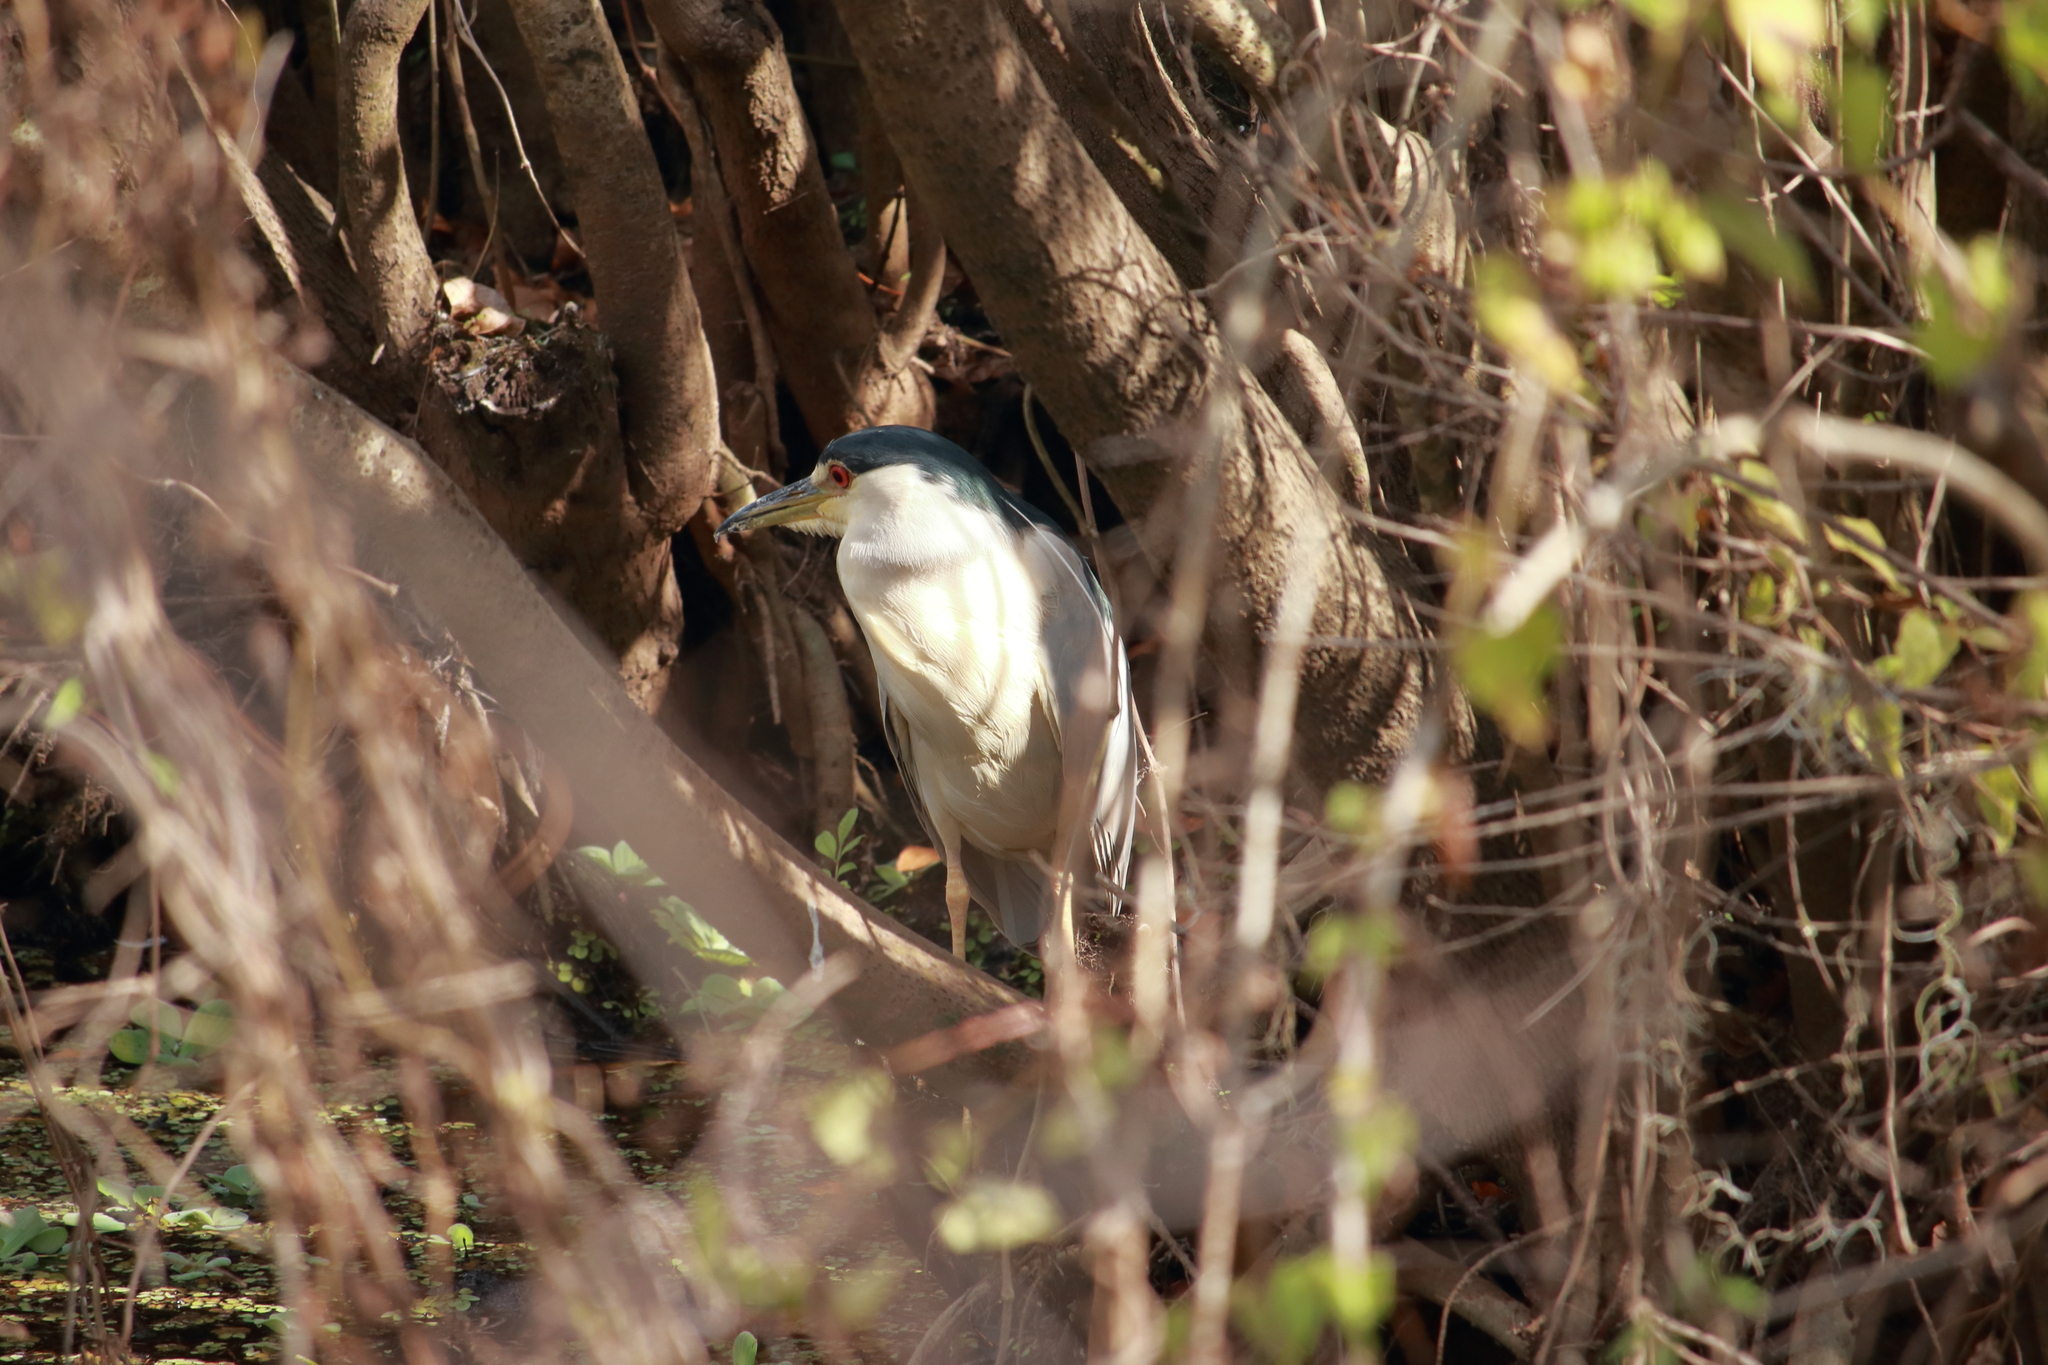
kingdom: Animalia
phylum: Chordata
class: Aves
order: Pelecaniformes
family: Ardeidae
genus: Nycticorax
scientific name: Nycticorax nycticorax
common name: Black-crowned night heron
